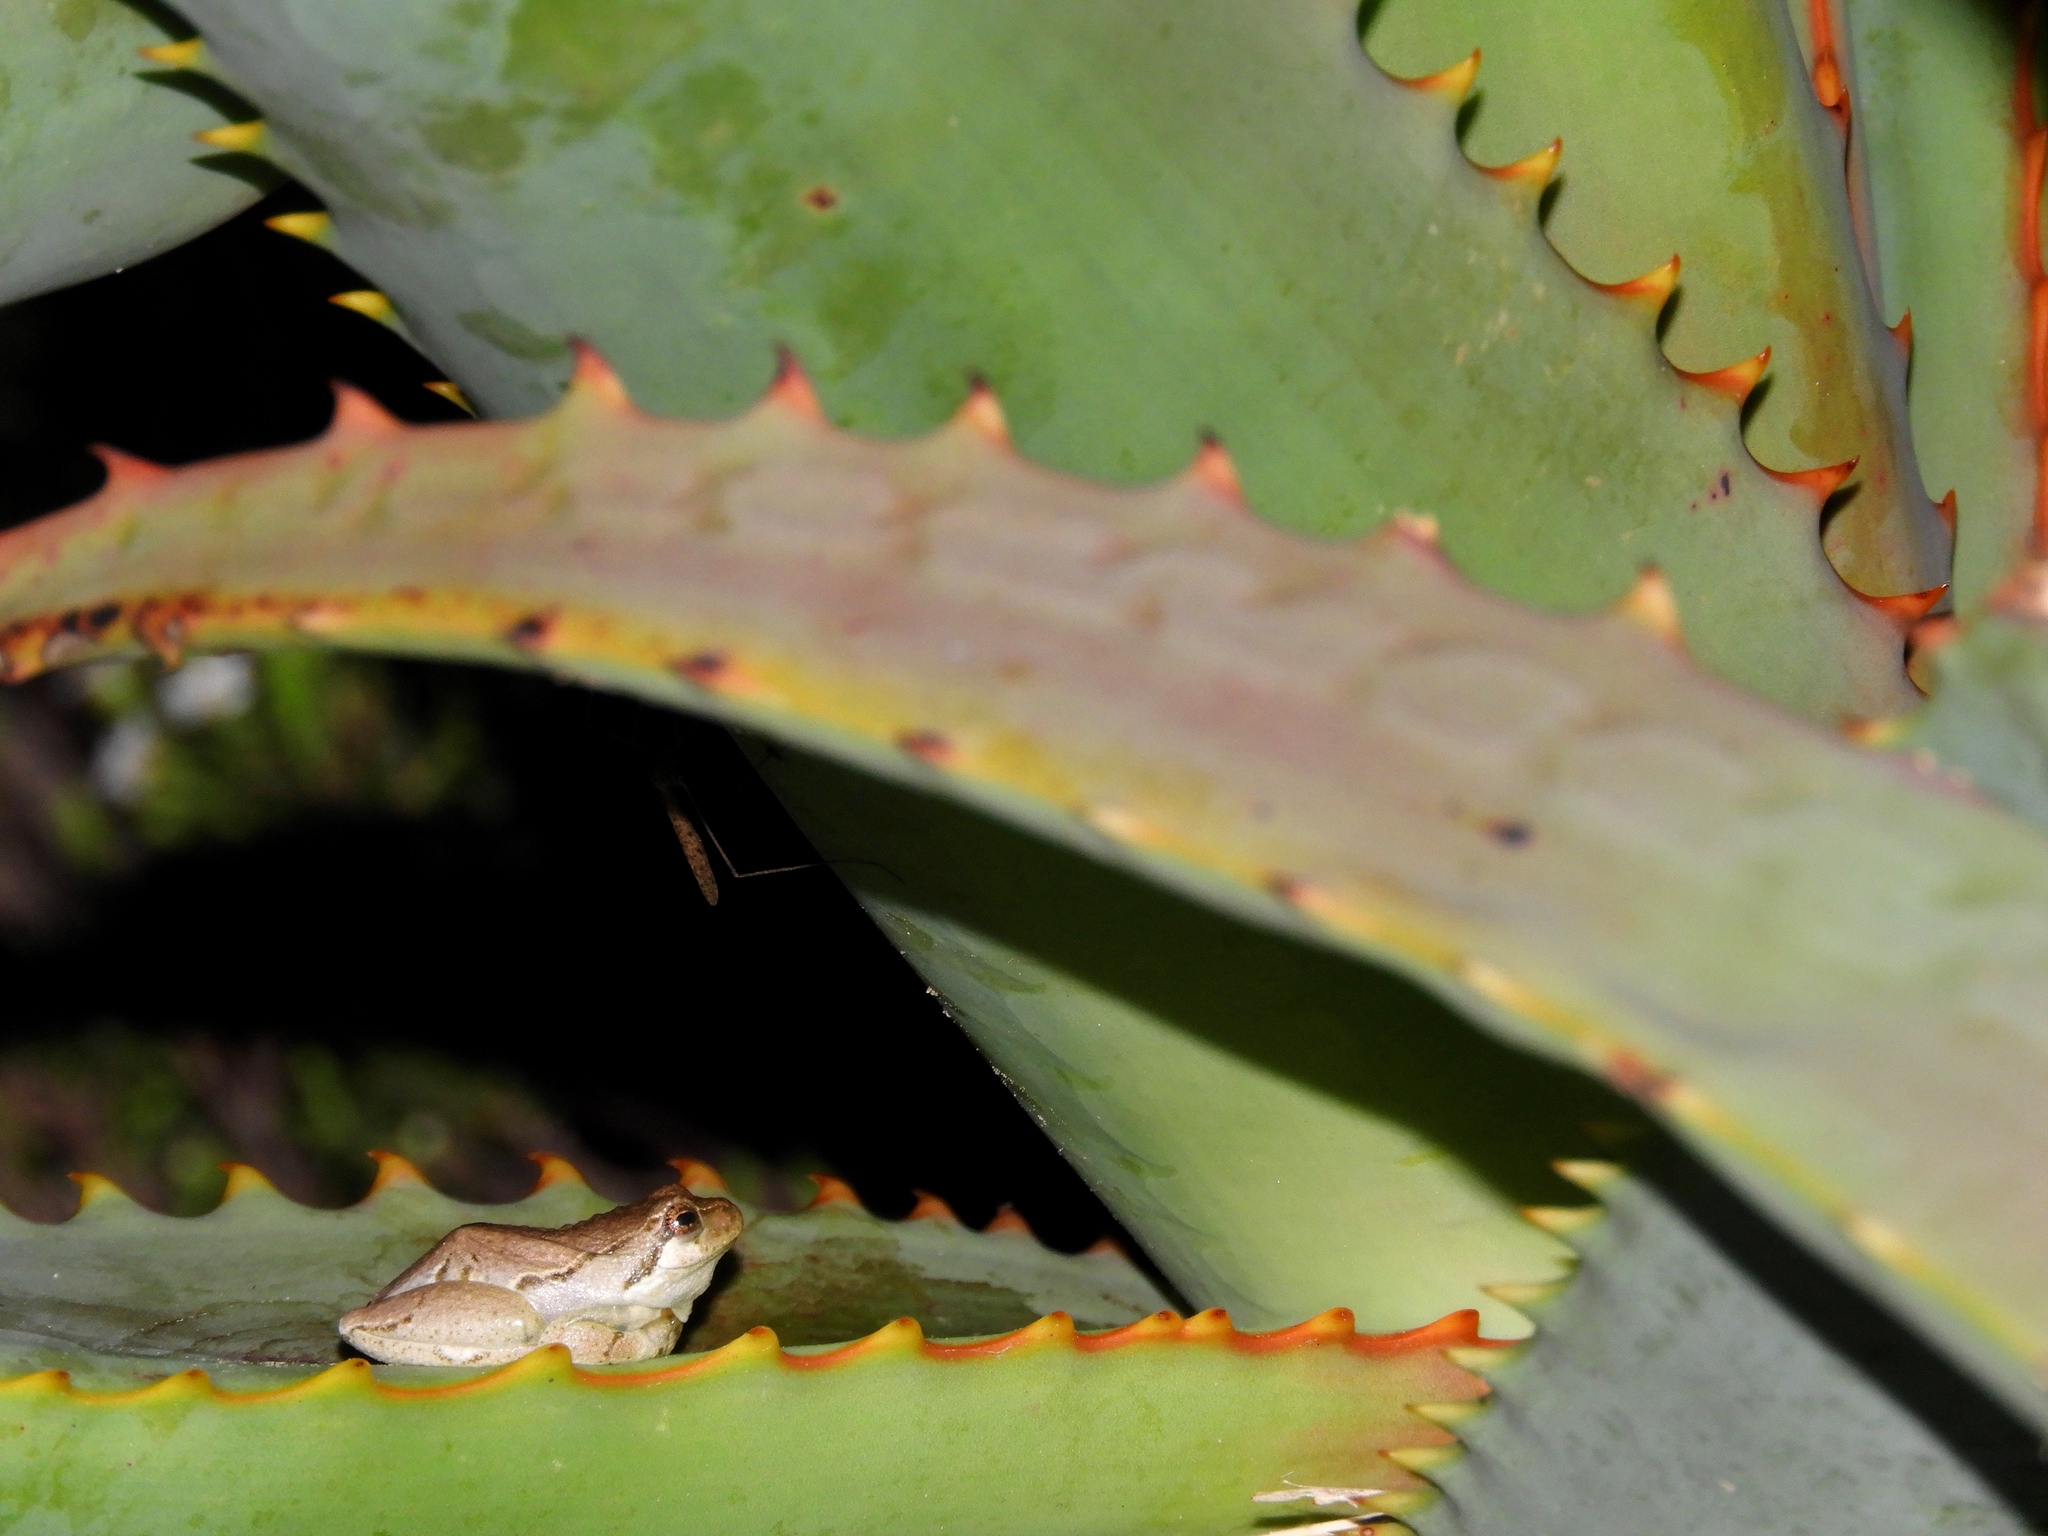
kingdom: Animalia
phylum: Chordata
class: Amphibia
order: Anura
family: Hyperoliidae
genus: Hyperolius
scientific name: Hyperolius marmoratus
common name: Painted reed frog
